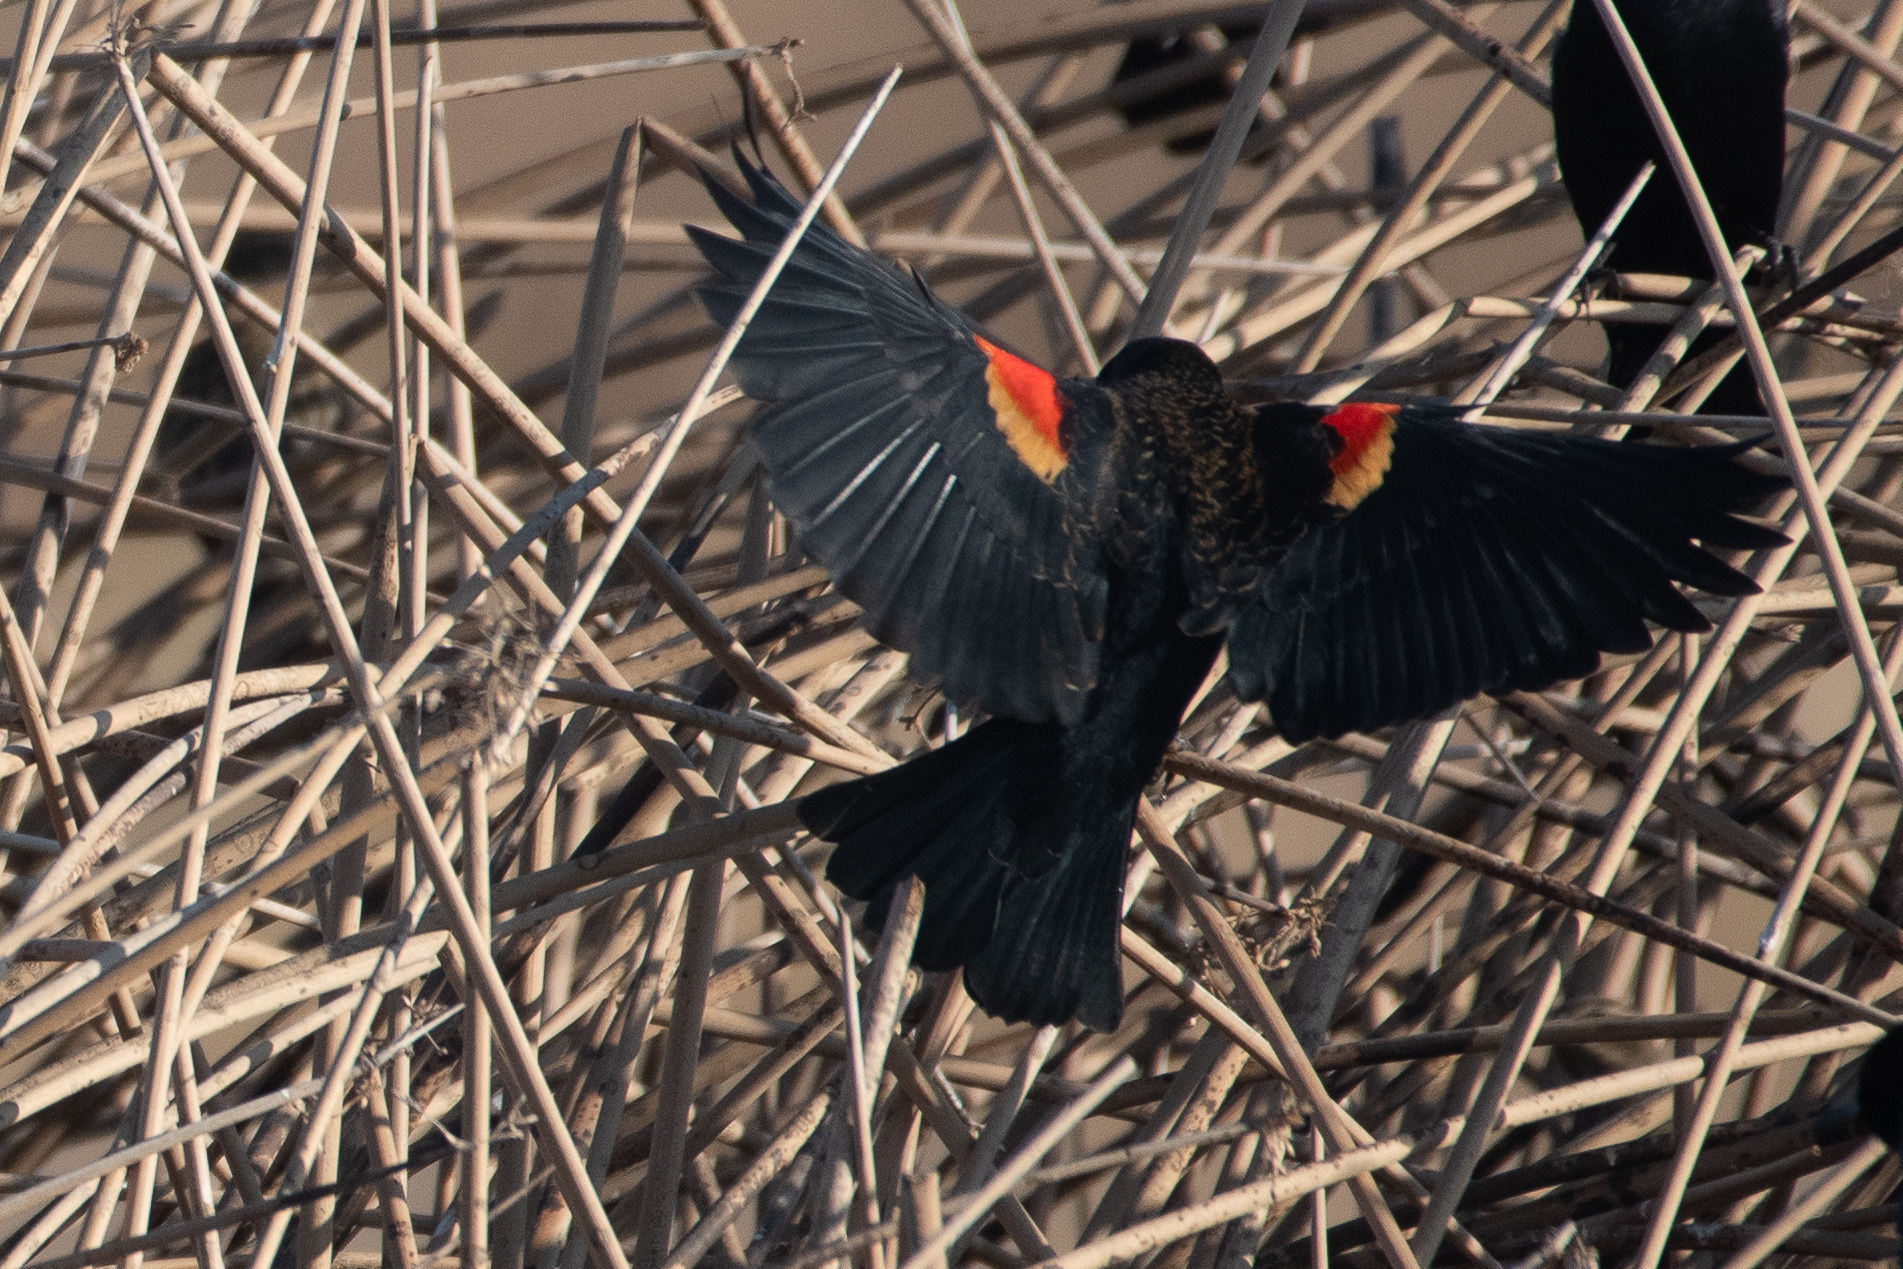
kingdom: Animalia
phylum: Chordata
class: Aves
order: Passeriformes
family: Icteridae
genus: Agelaius
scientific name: Agelaius phoeniceus
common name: Red-winged blackbird
